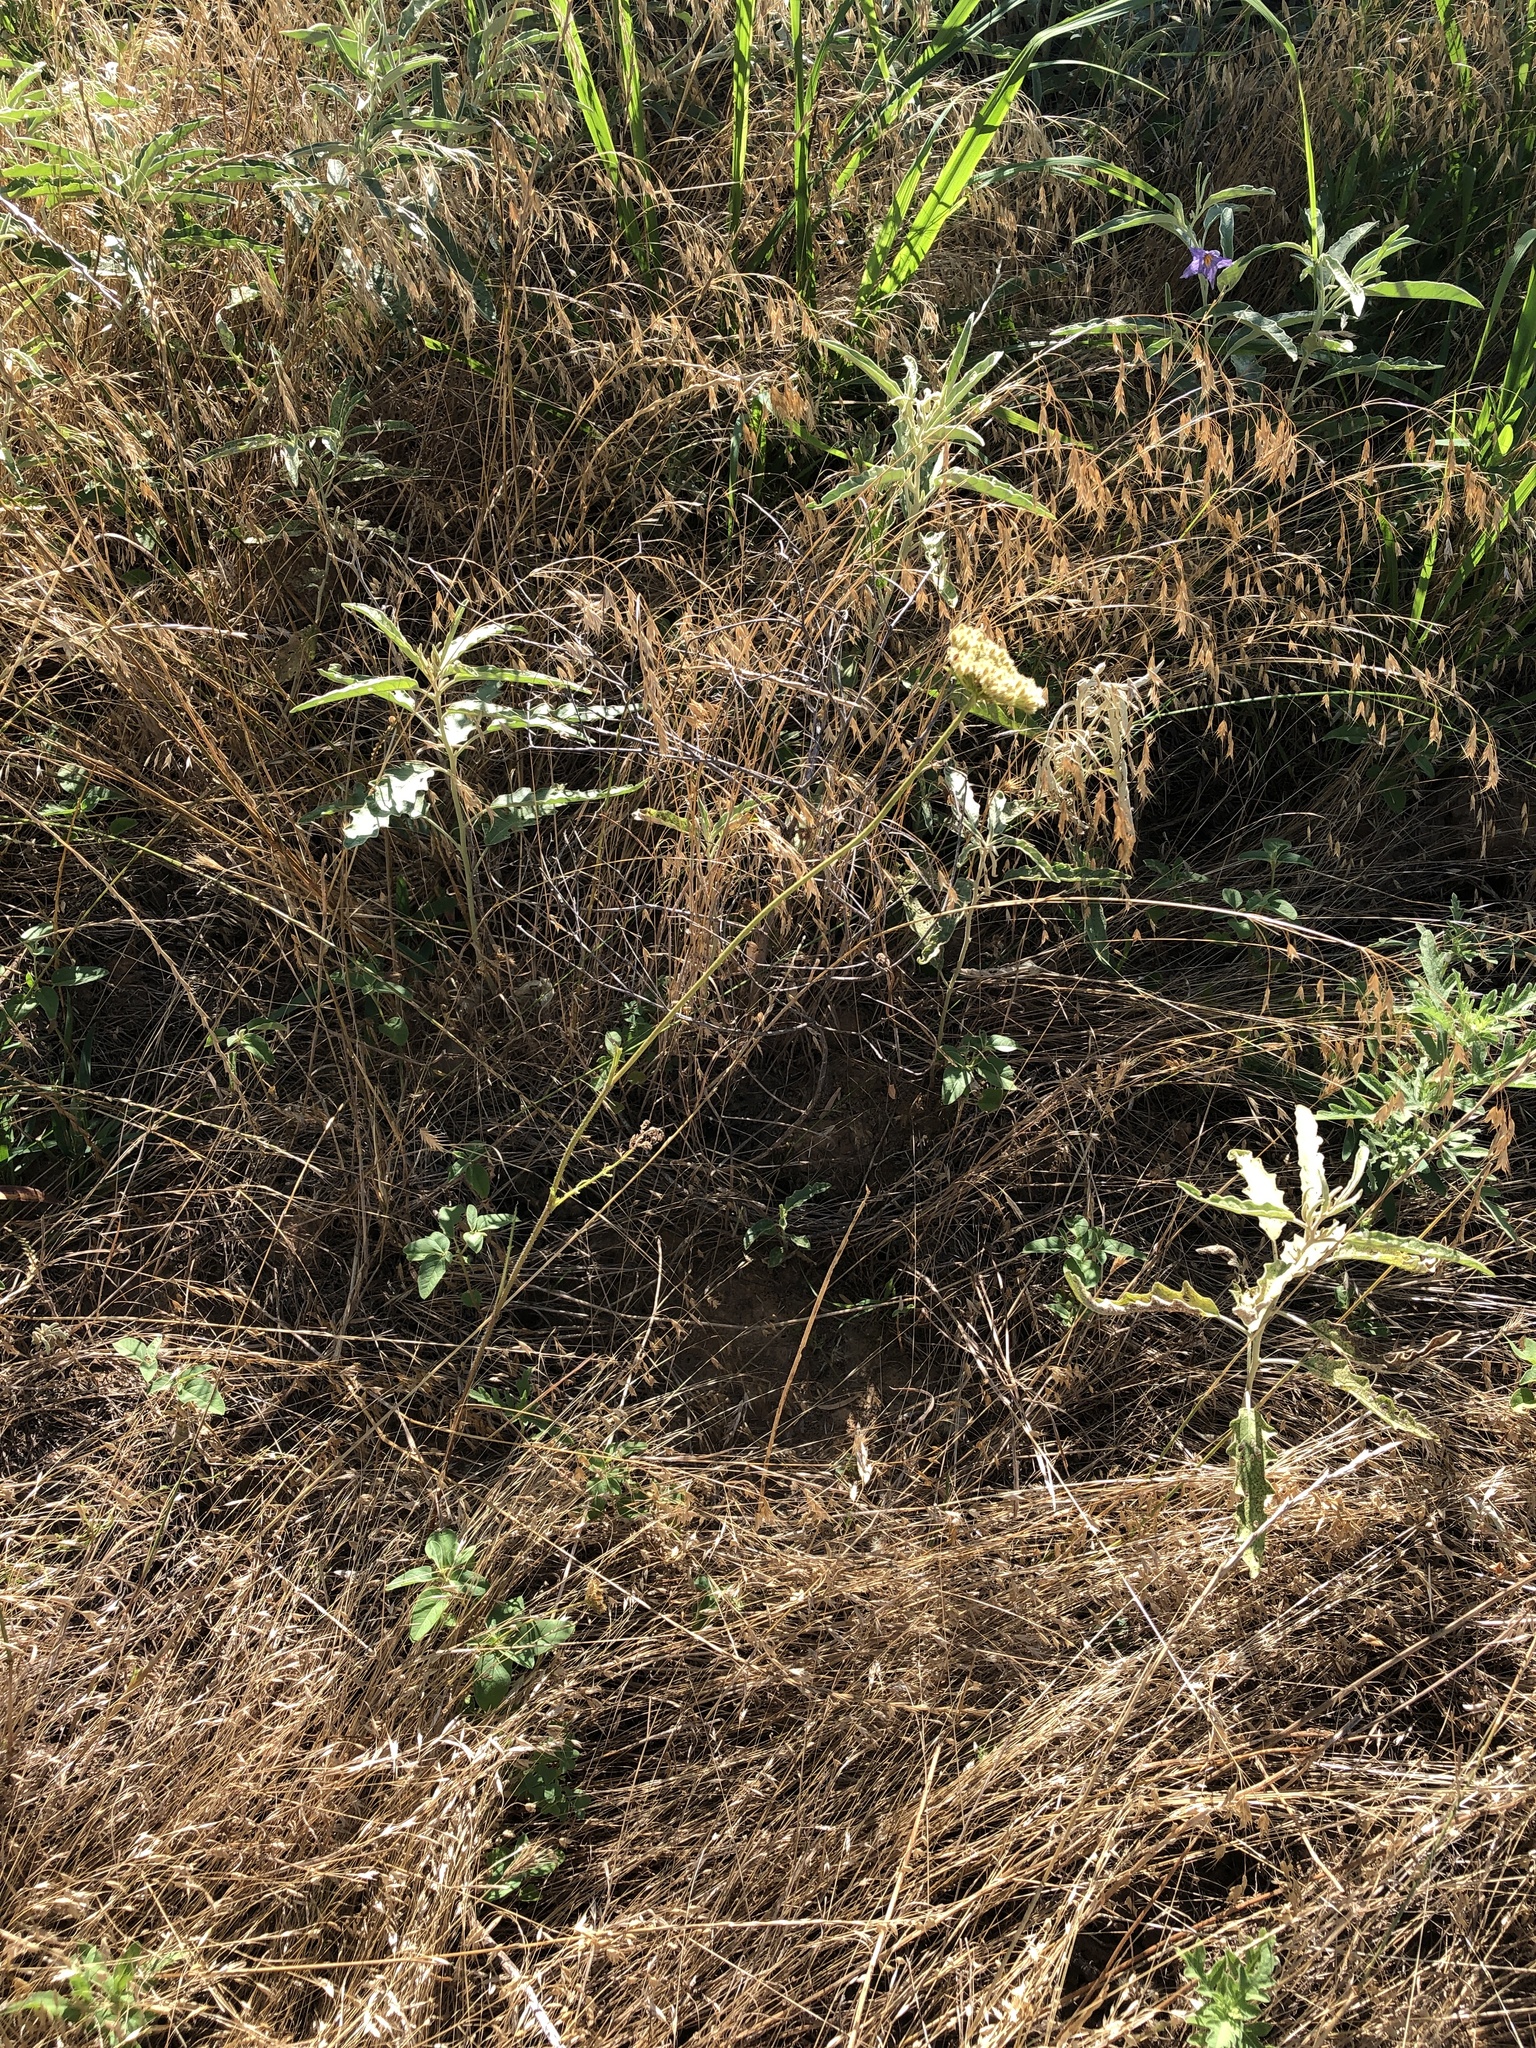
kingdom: Plantae
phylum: Tracheophyta
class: Magnoliopsida
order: Apiales
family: Apiaceae
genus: Daucus
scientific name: Daucus pusillus
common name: Southwest wild carrot
